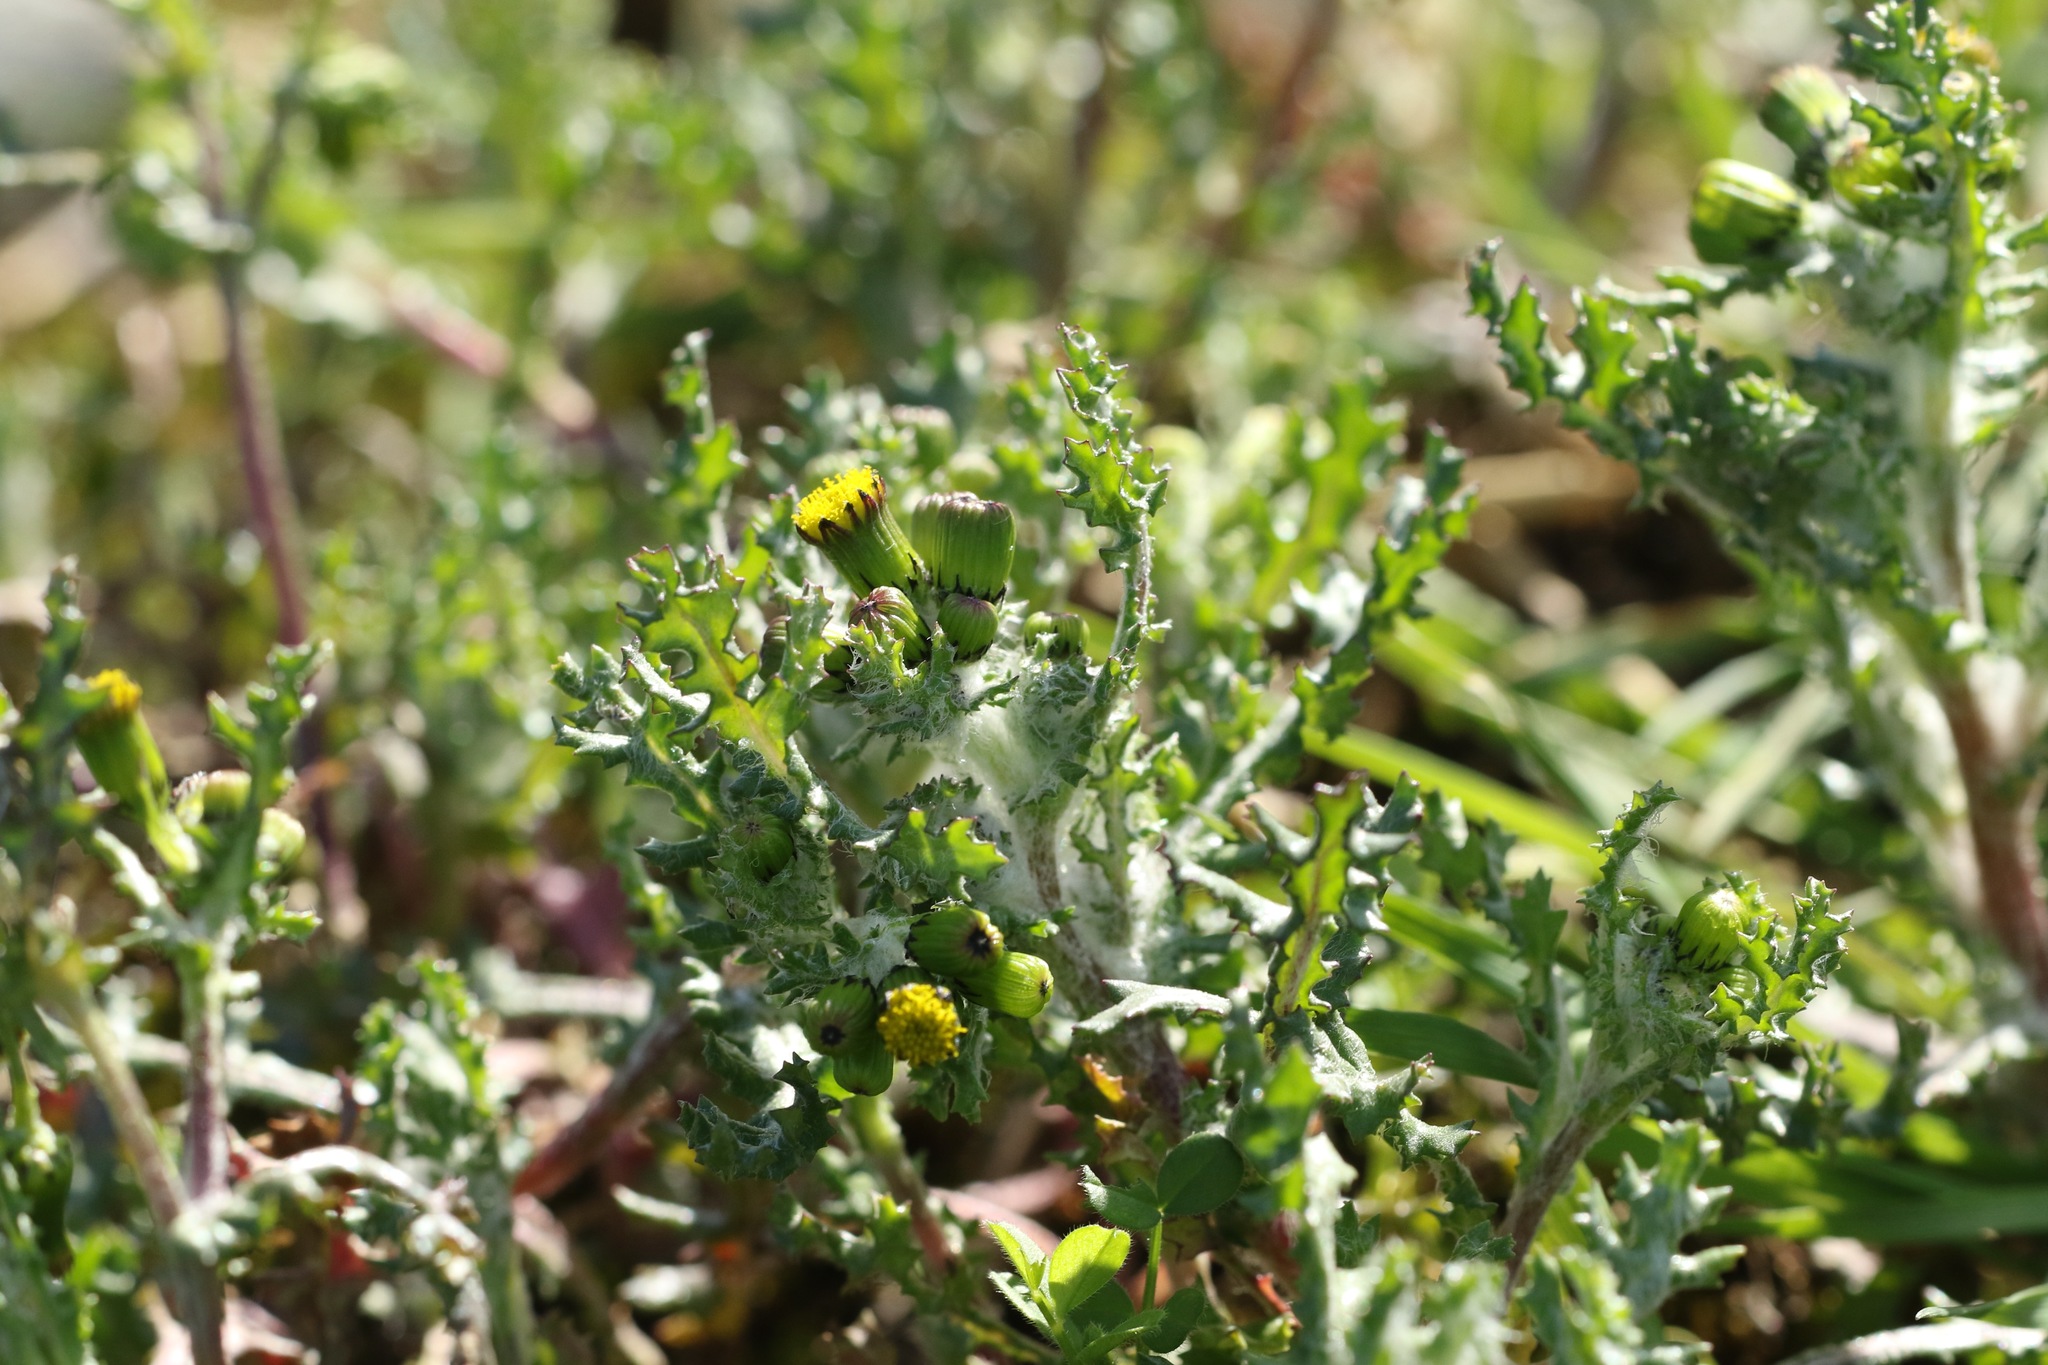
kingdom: Plantae
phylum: Tracheophyta
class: Magnoliopsida
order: Asterales
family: Asteraceae
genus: Senecio
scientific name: Senecio vulgaris
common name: Old-man-in-the-spring
